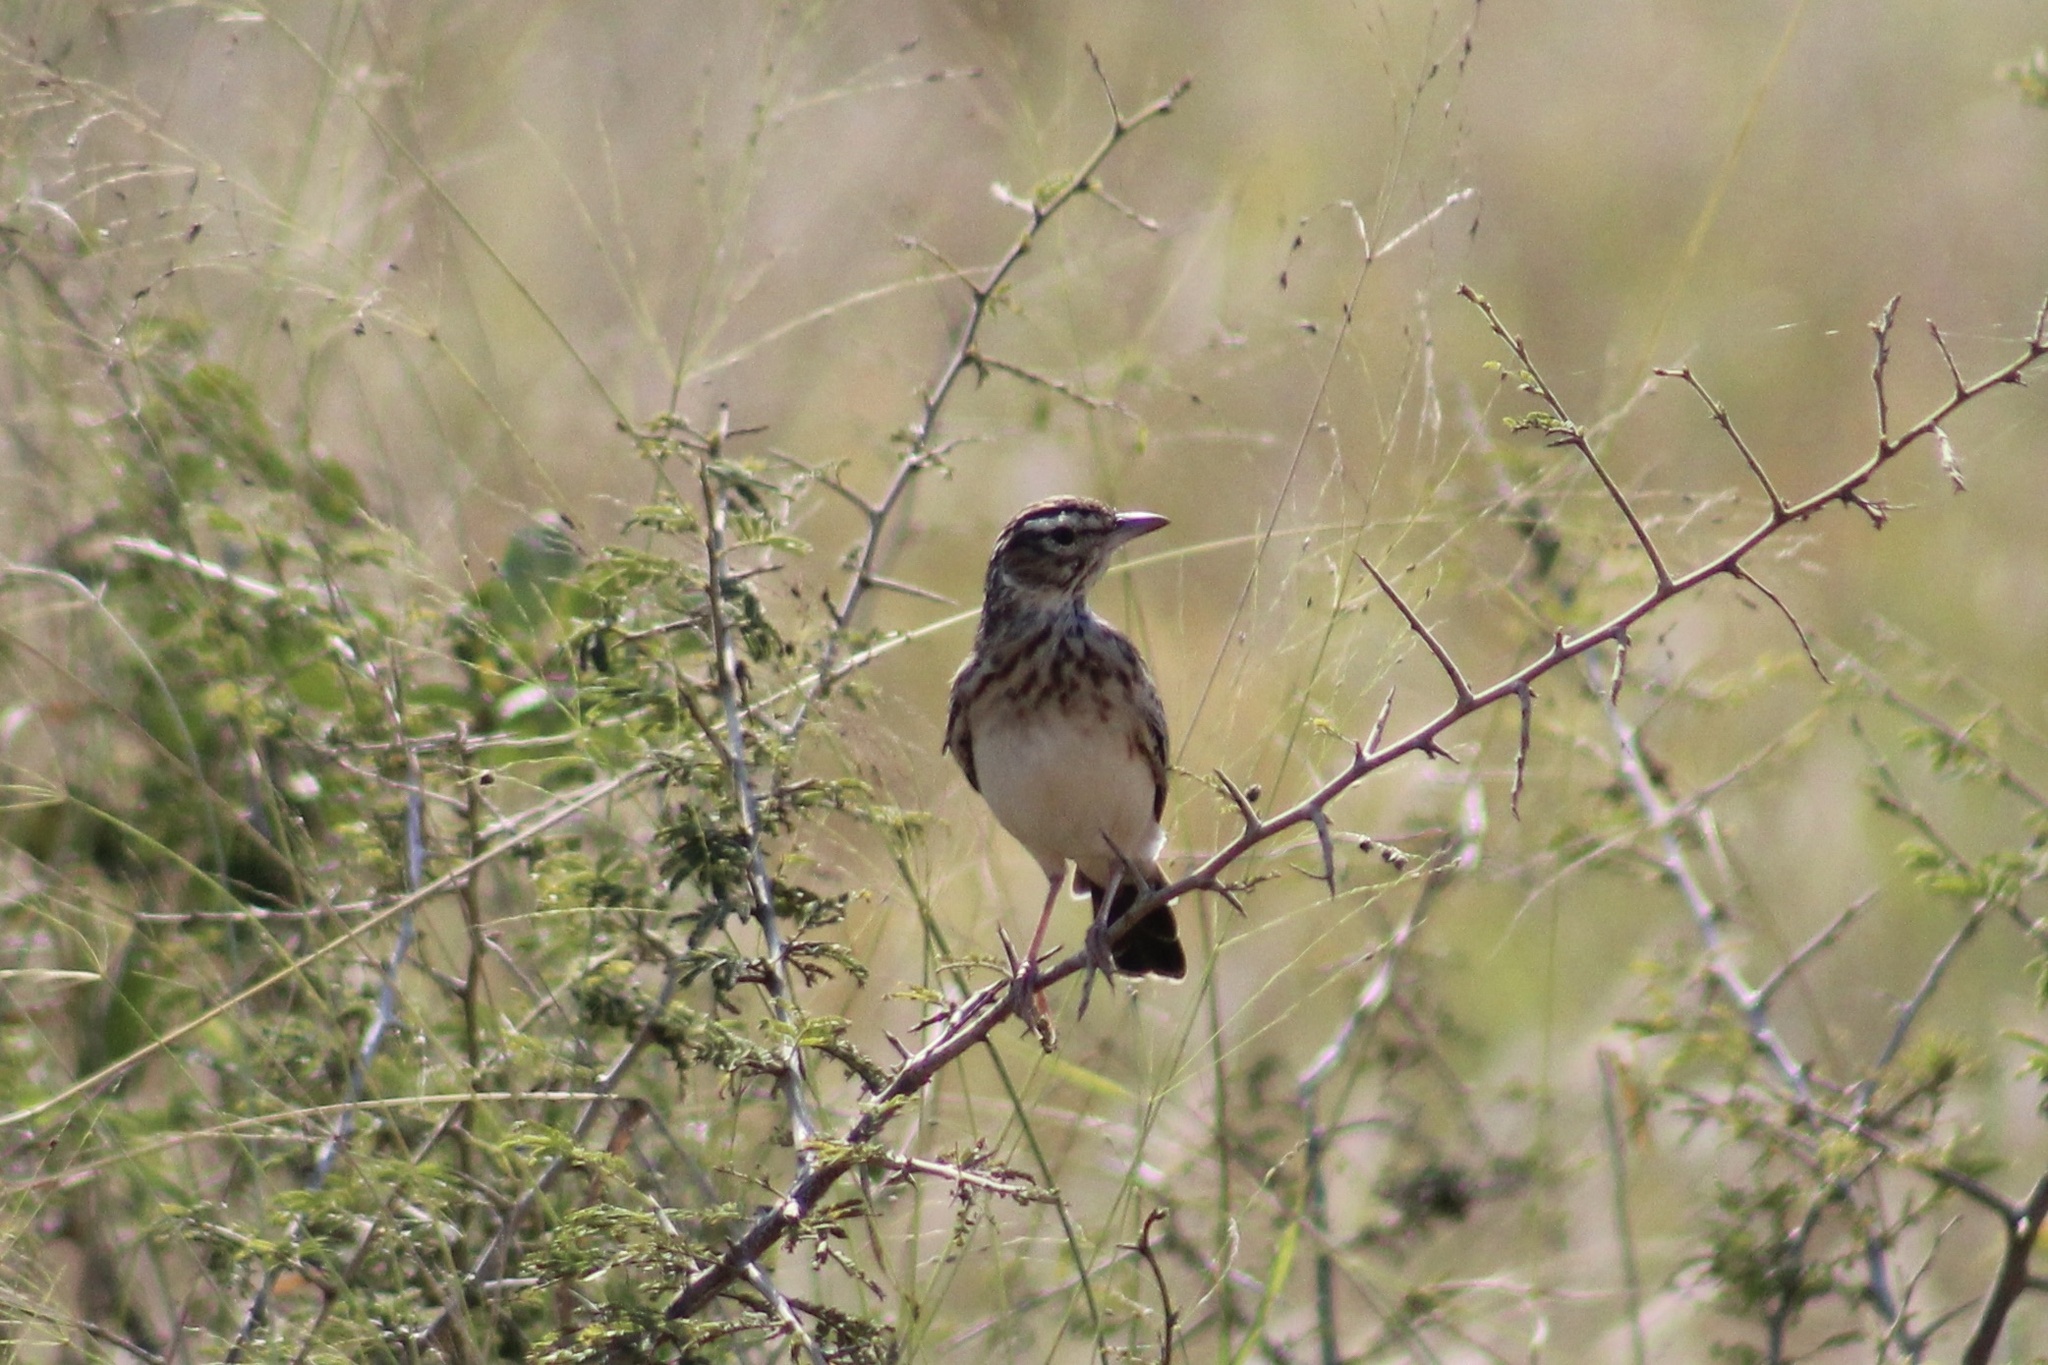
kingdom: Animalia
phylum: Chordata
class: Aves
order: Passeriformes
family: Alaudidae
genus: Calendulauda
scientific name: Calendulauda sabota
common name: Sabota lark
